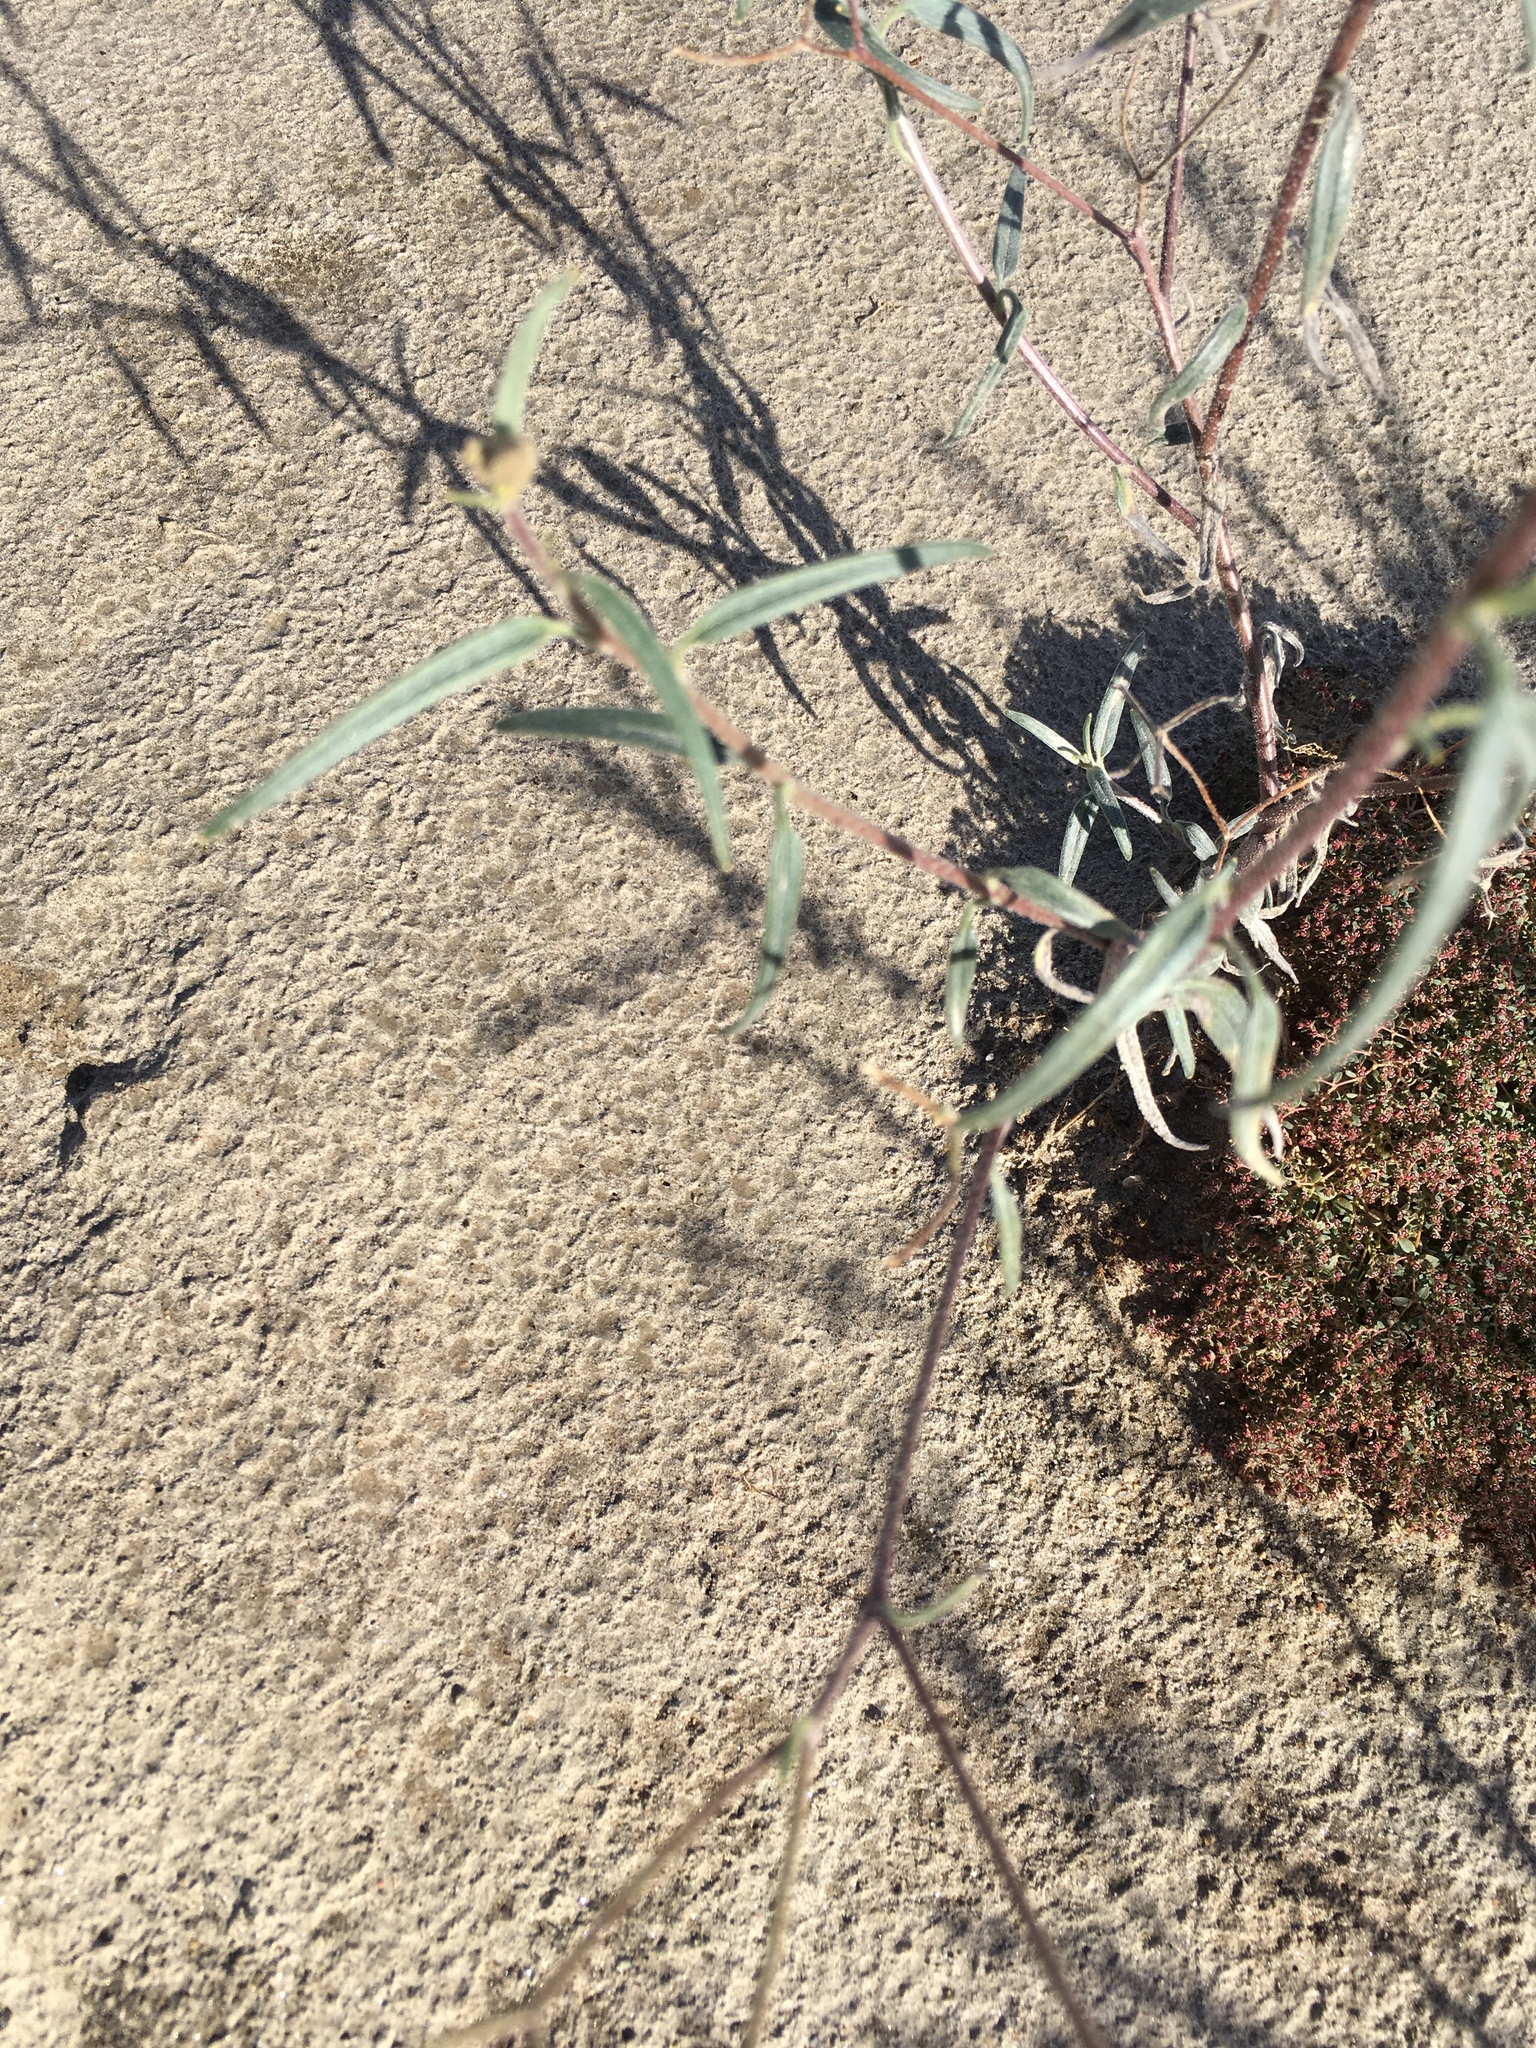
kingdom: Plantae
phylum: Tracheophyta
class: Magnoliopsida
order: Asterales
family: Asteraceae
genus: Palafoxia
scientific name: Palafoxia arida
